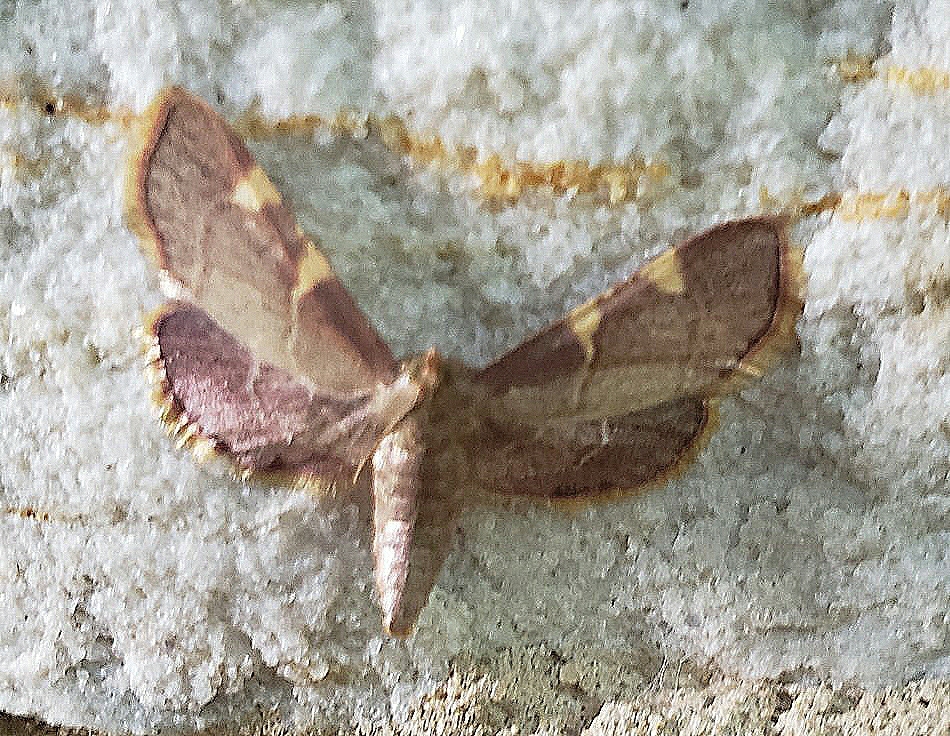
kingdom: Animalia
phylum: Arthropoda
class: Insecta
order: Lepidoptera
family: Pyralidae
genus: Hypsopygia
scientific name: Hypsopygia olinalis
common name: Yellow-fringed dolichomia moth
